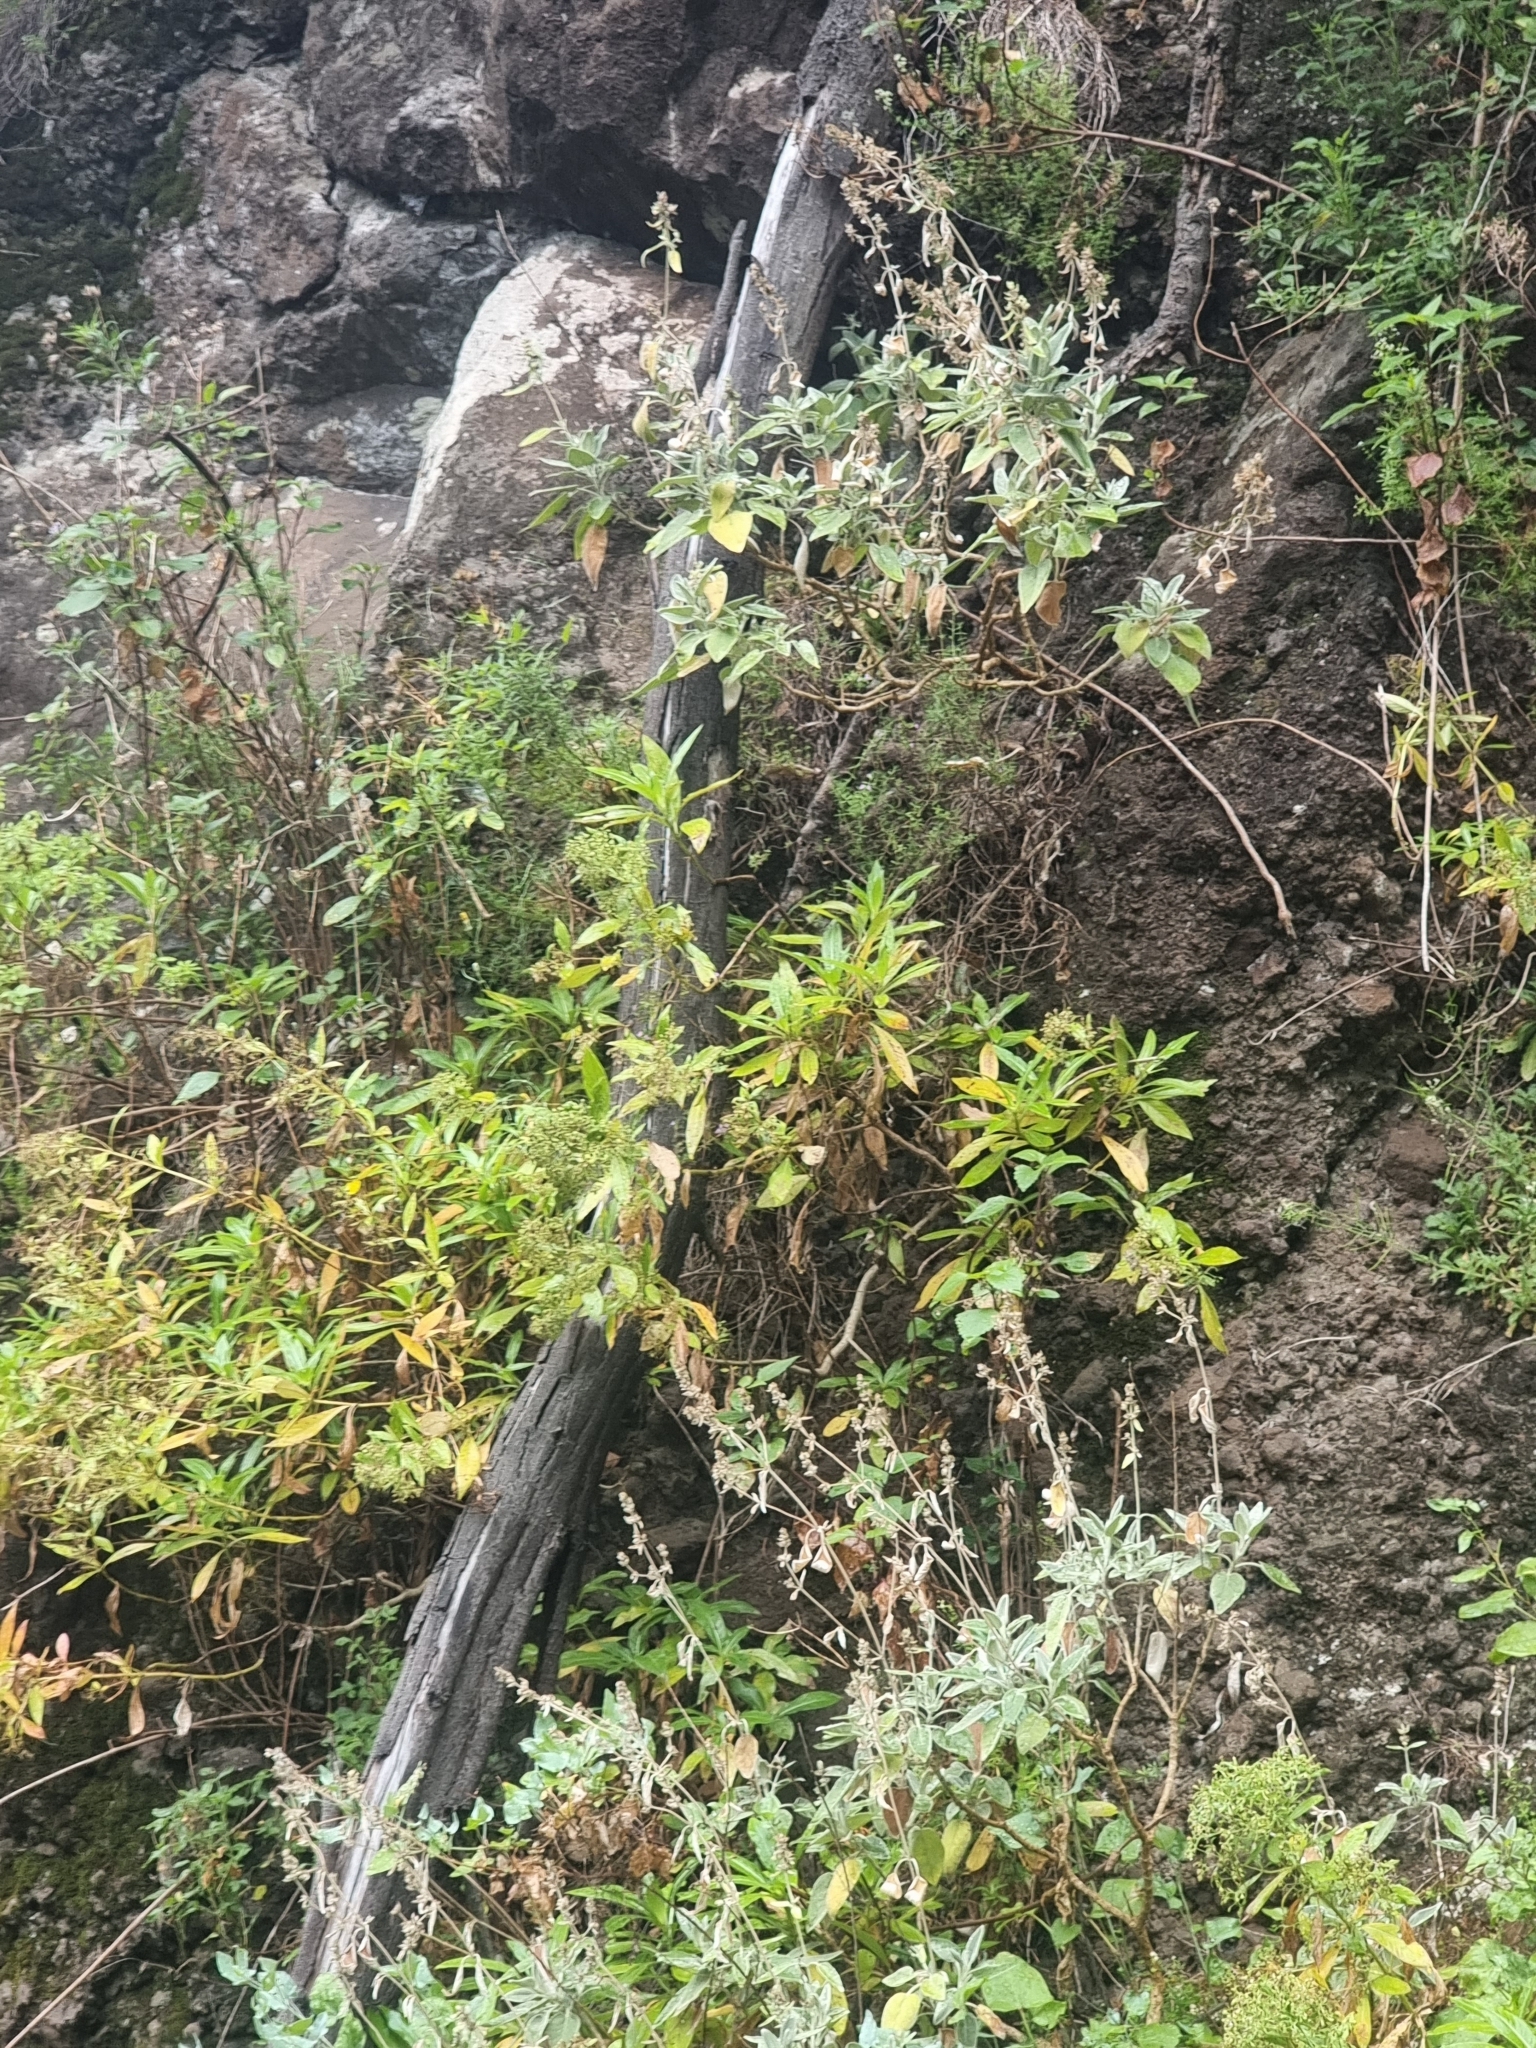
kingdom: Plantae
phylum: Tracheophyta
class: Magnoliopsida
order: Lamiales
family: Lamiaceae
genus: Sideritis
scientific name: Sideritis candicans
